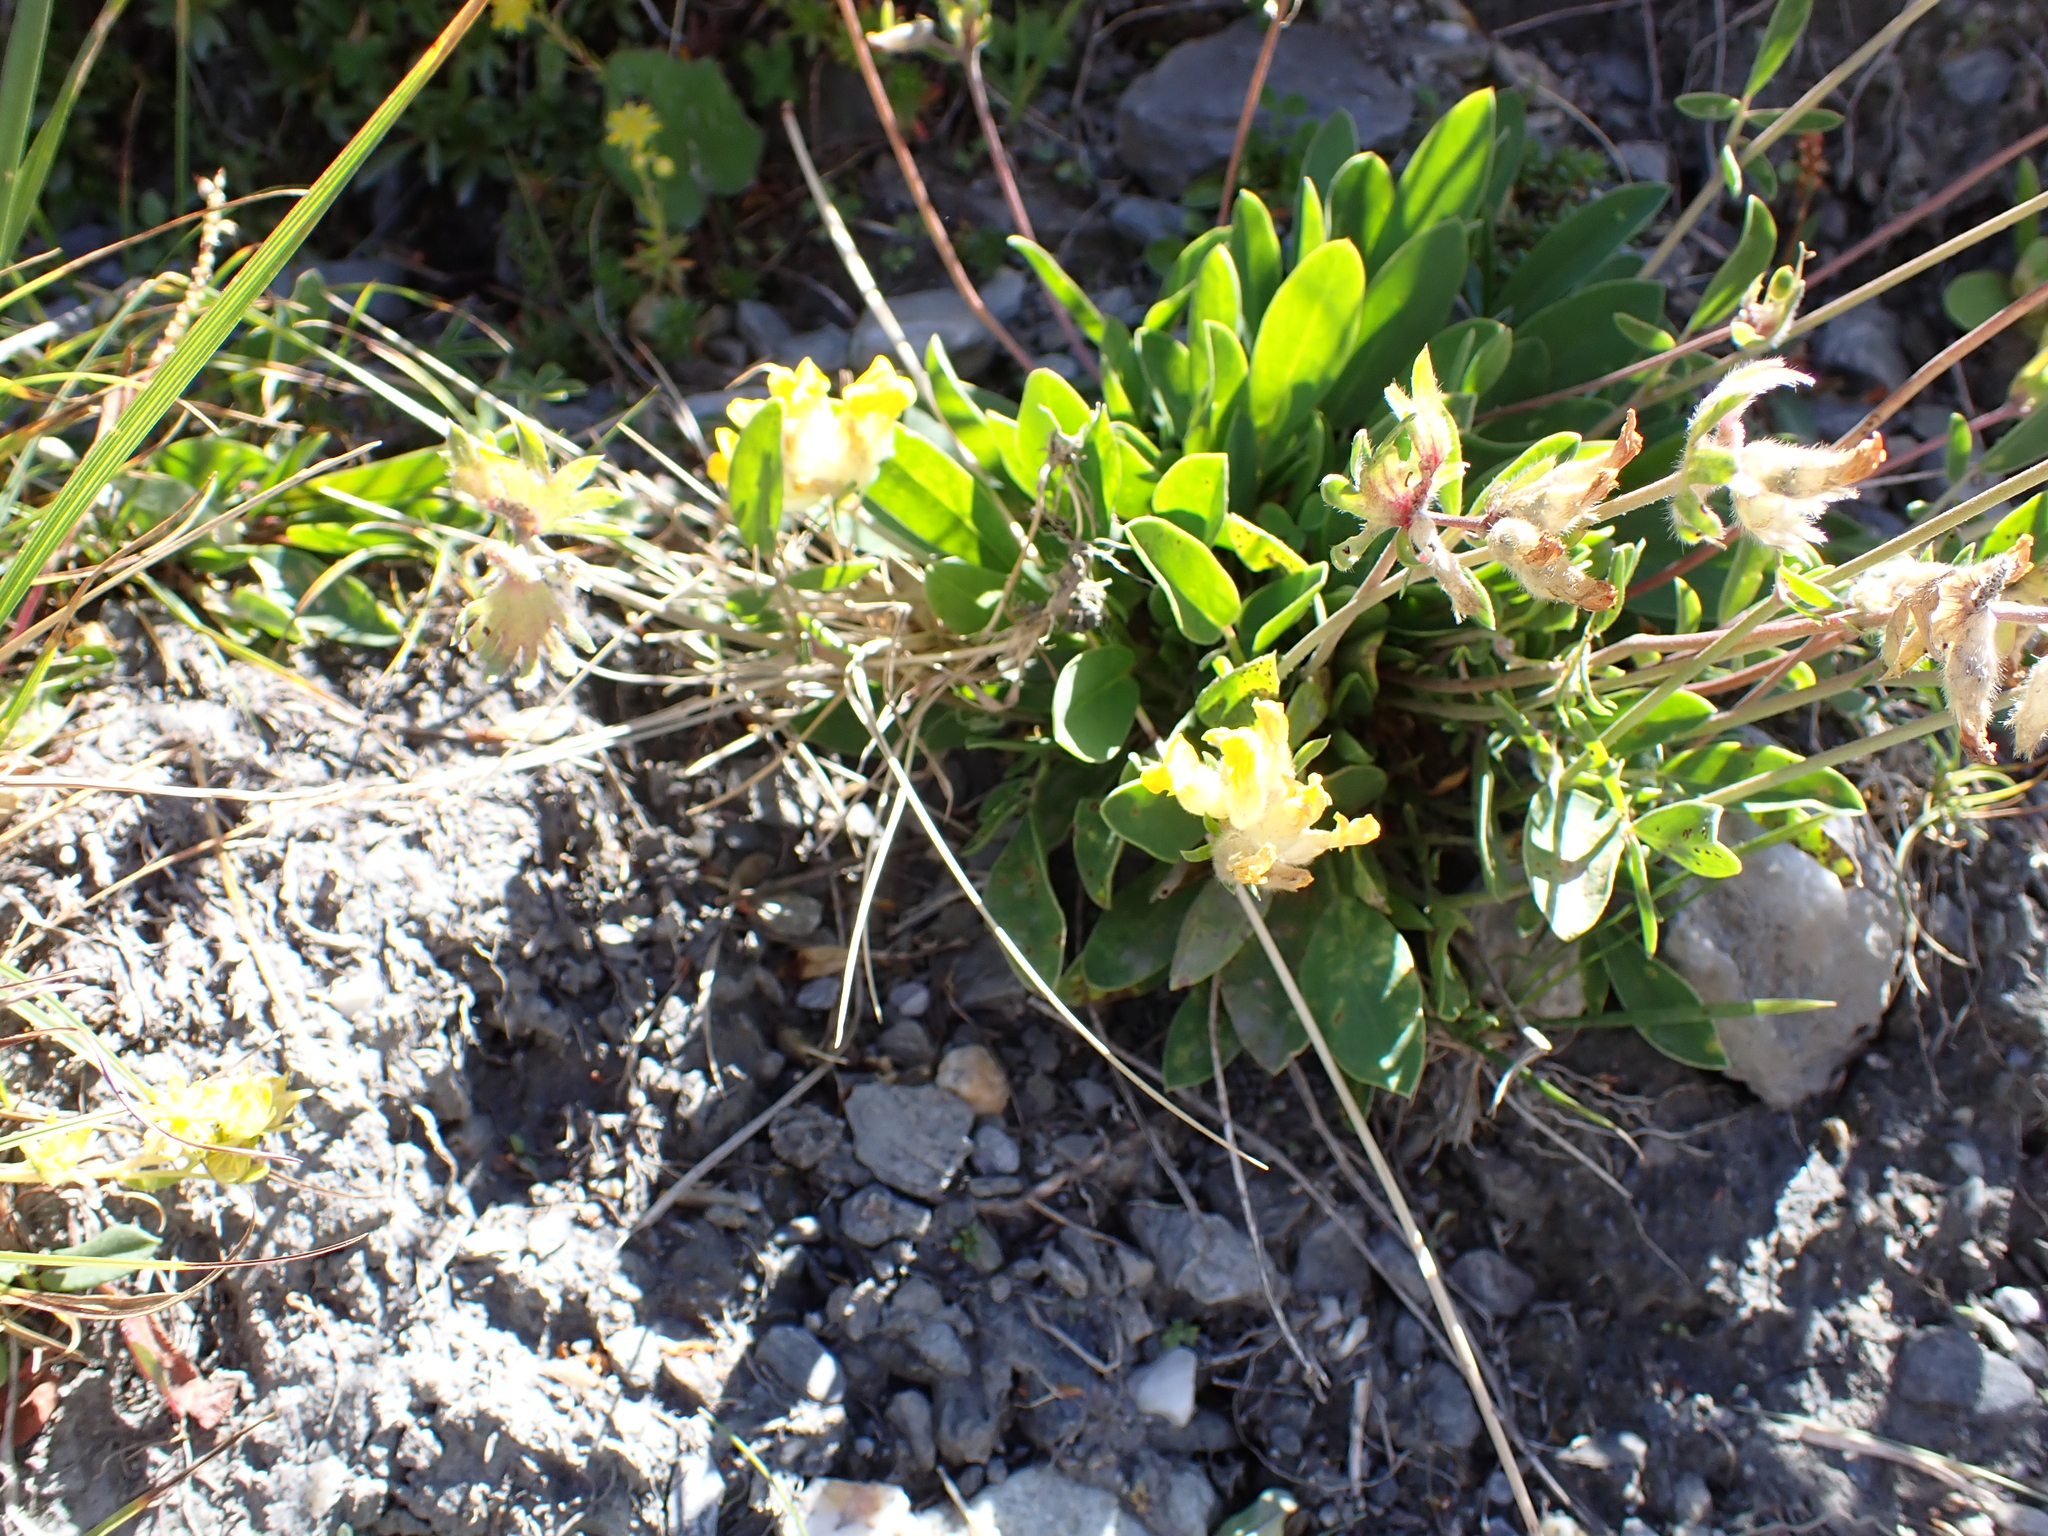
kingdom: Plantae
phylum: Tracheophyta
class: Magnoliopsida
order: Fabales
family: Fabaceae
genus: Anthyllis
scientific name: Anthyllis vulneraria
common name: Kidney vetch
